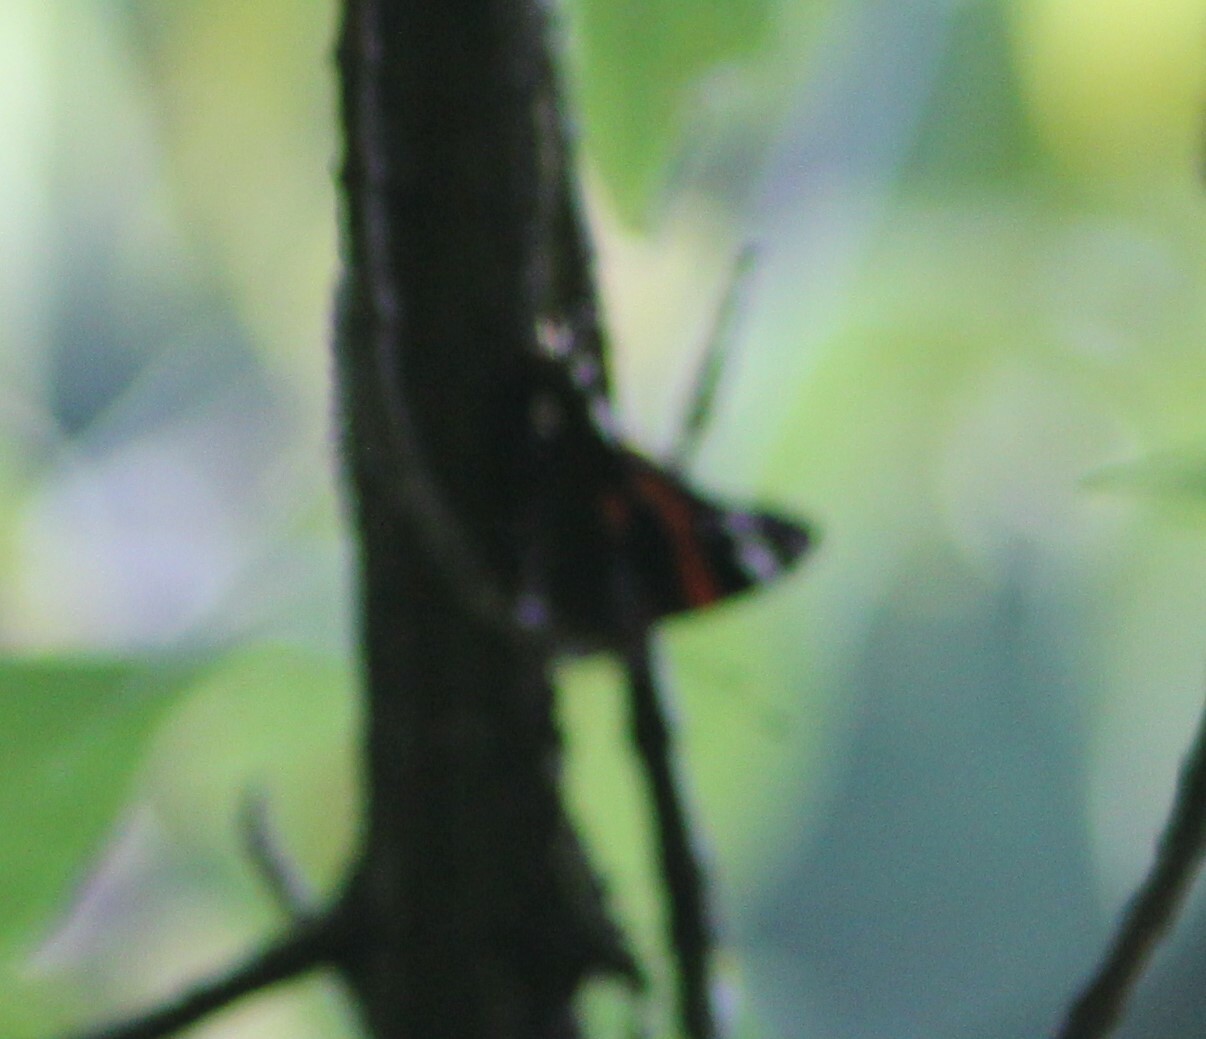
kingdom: Animalia
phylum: Arthropoda
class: Insecta
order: Lepidoptera
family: Nymphalidae
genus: Vanessa
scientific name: Vanessa atalanta
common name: Red admiral
